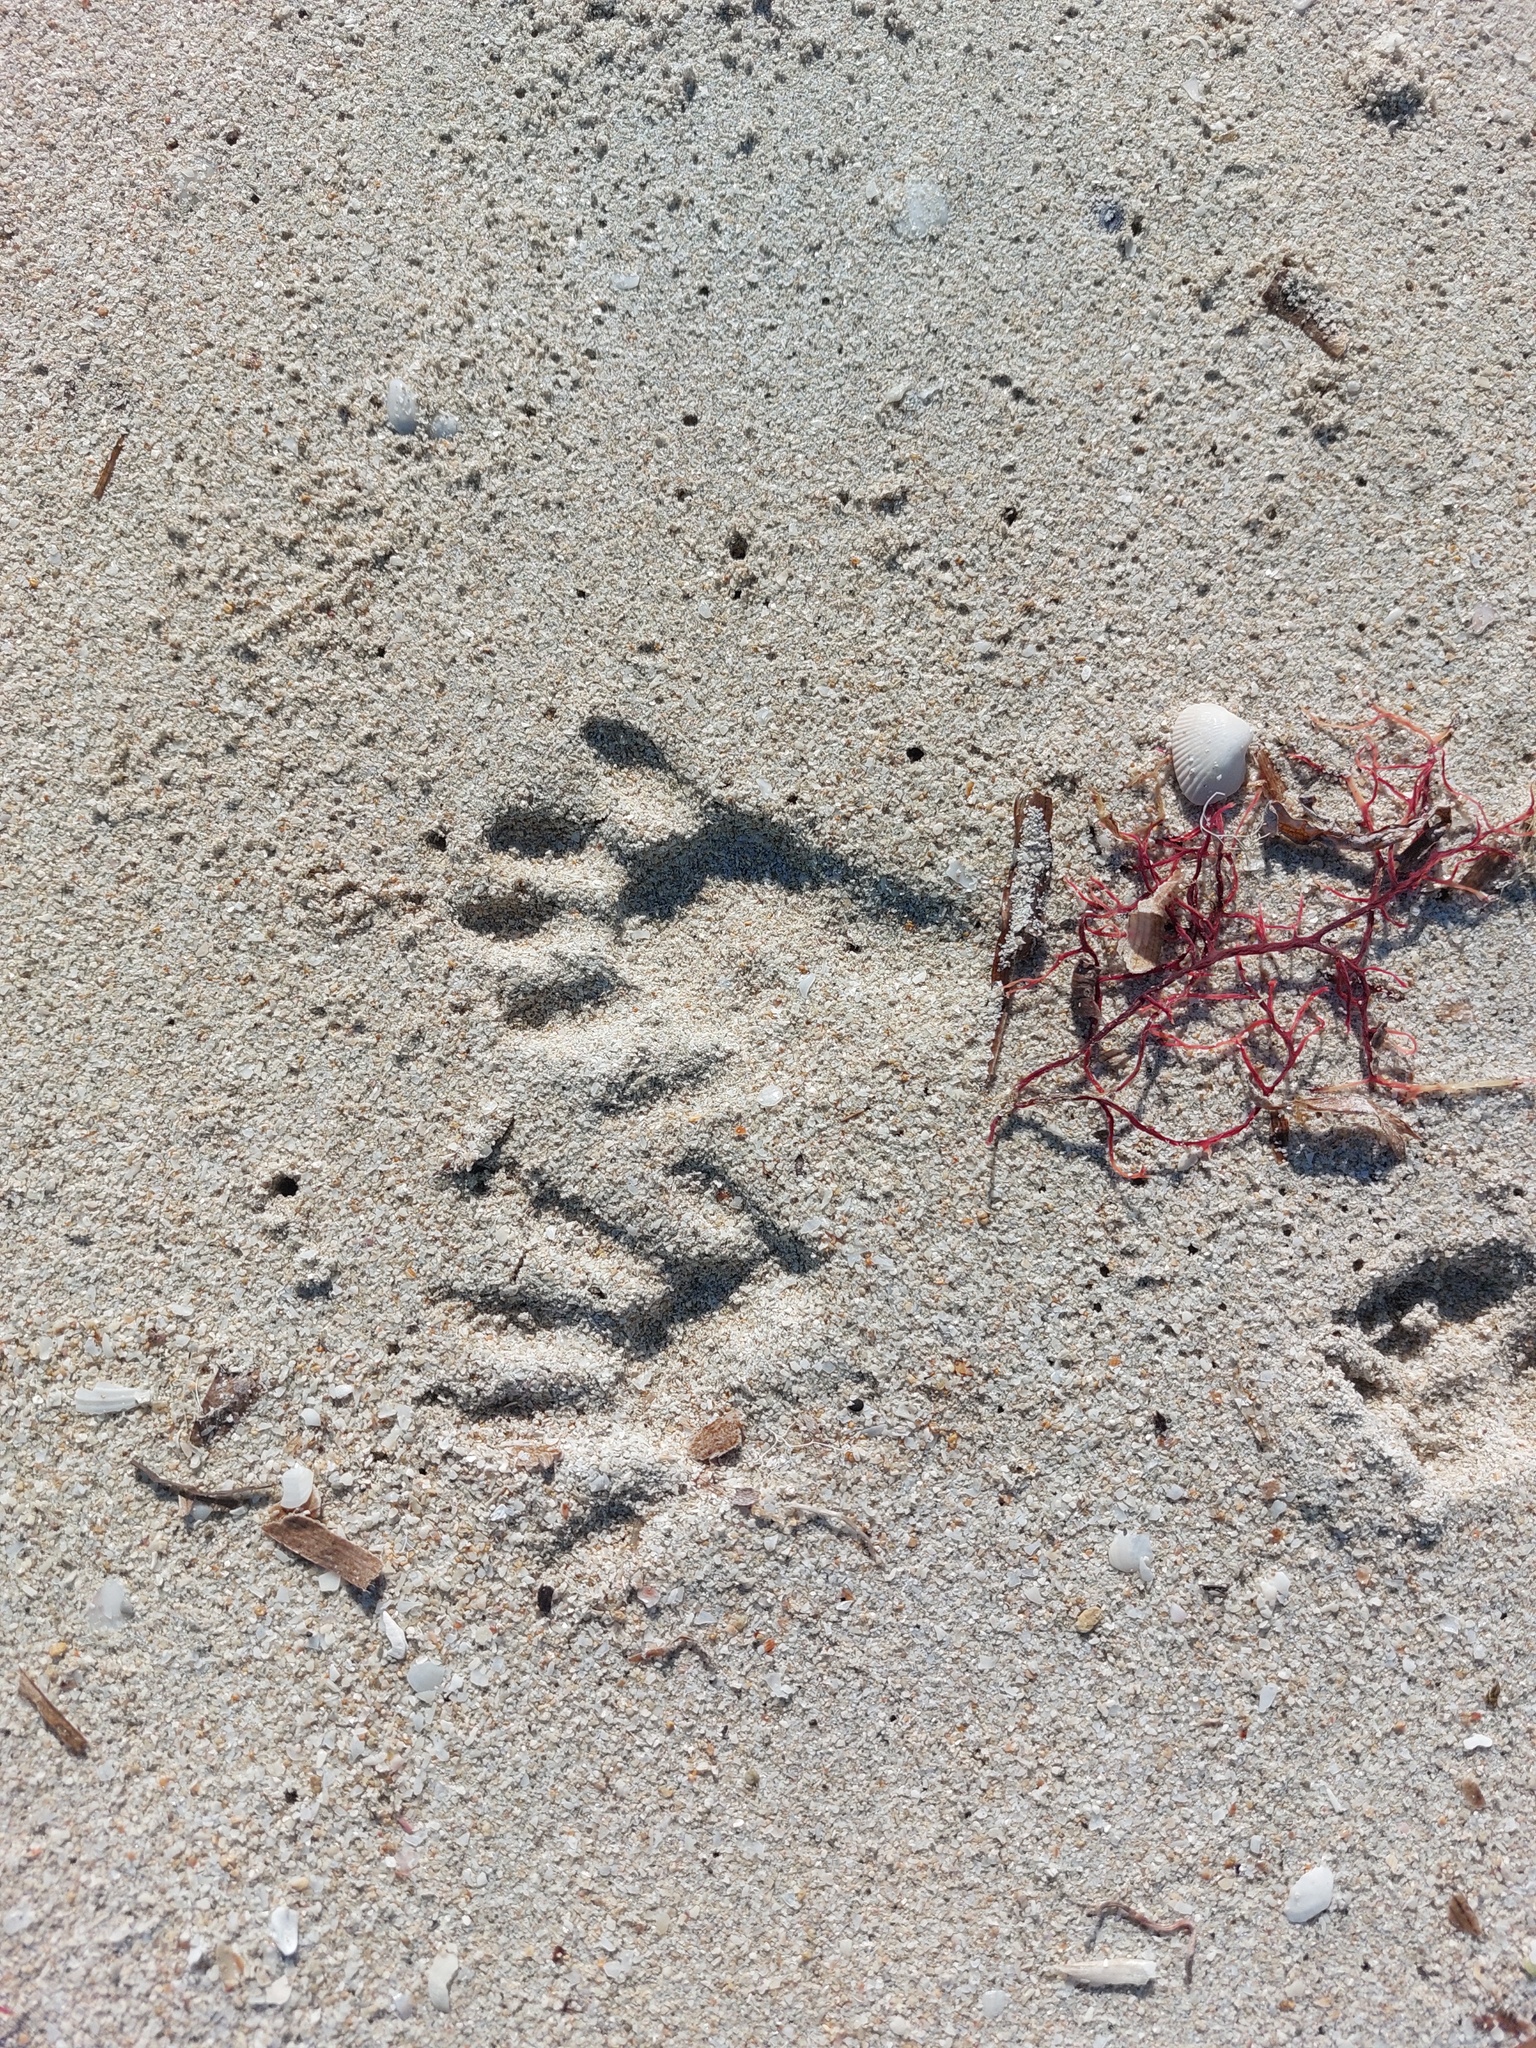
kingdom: Animalia
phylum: Chordata
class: Mammalia
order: Carnivora
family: Procyonidae
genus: Procyon
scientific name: Procyon lotor
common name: Raccoon
